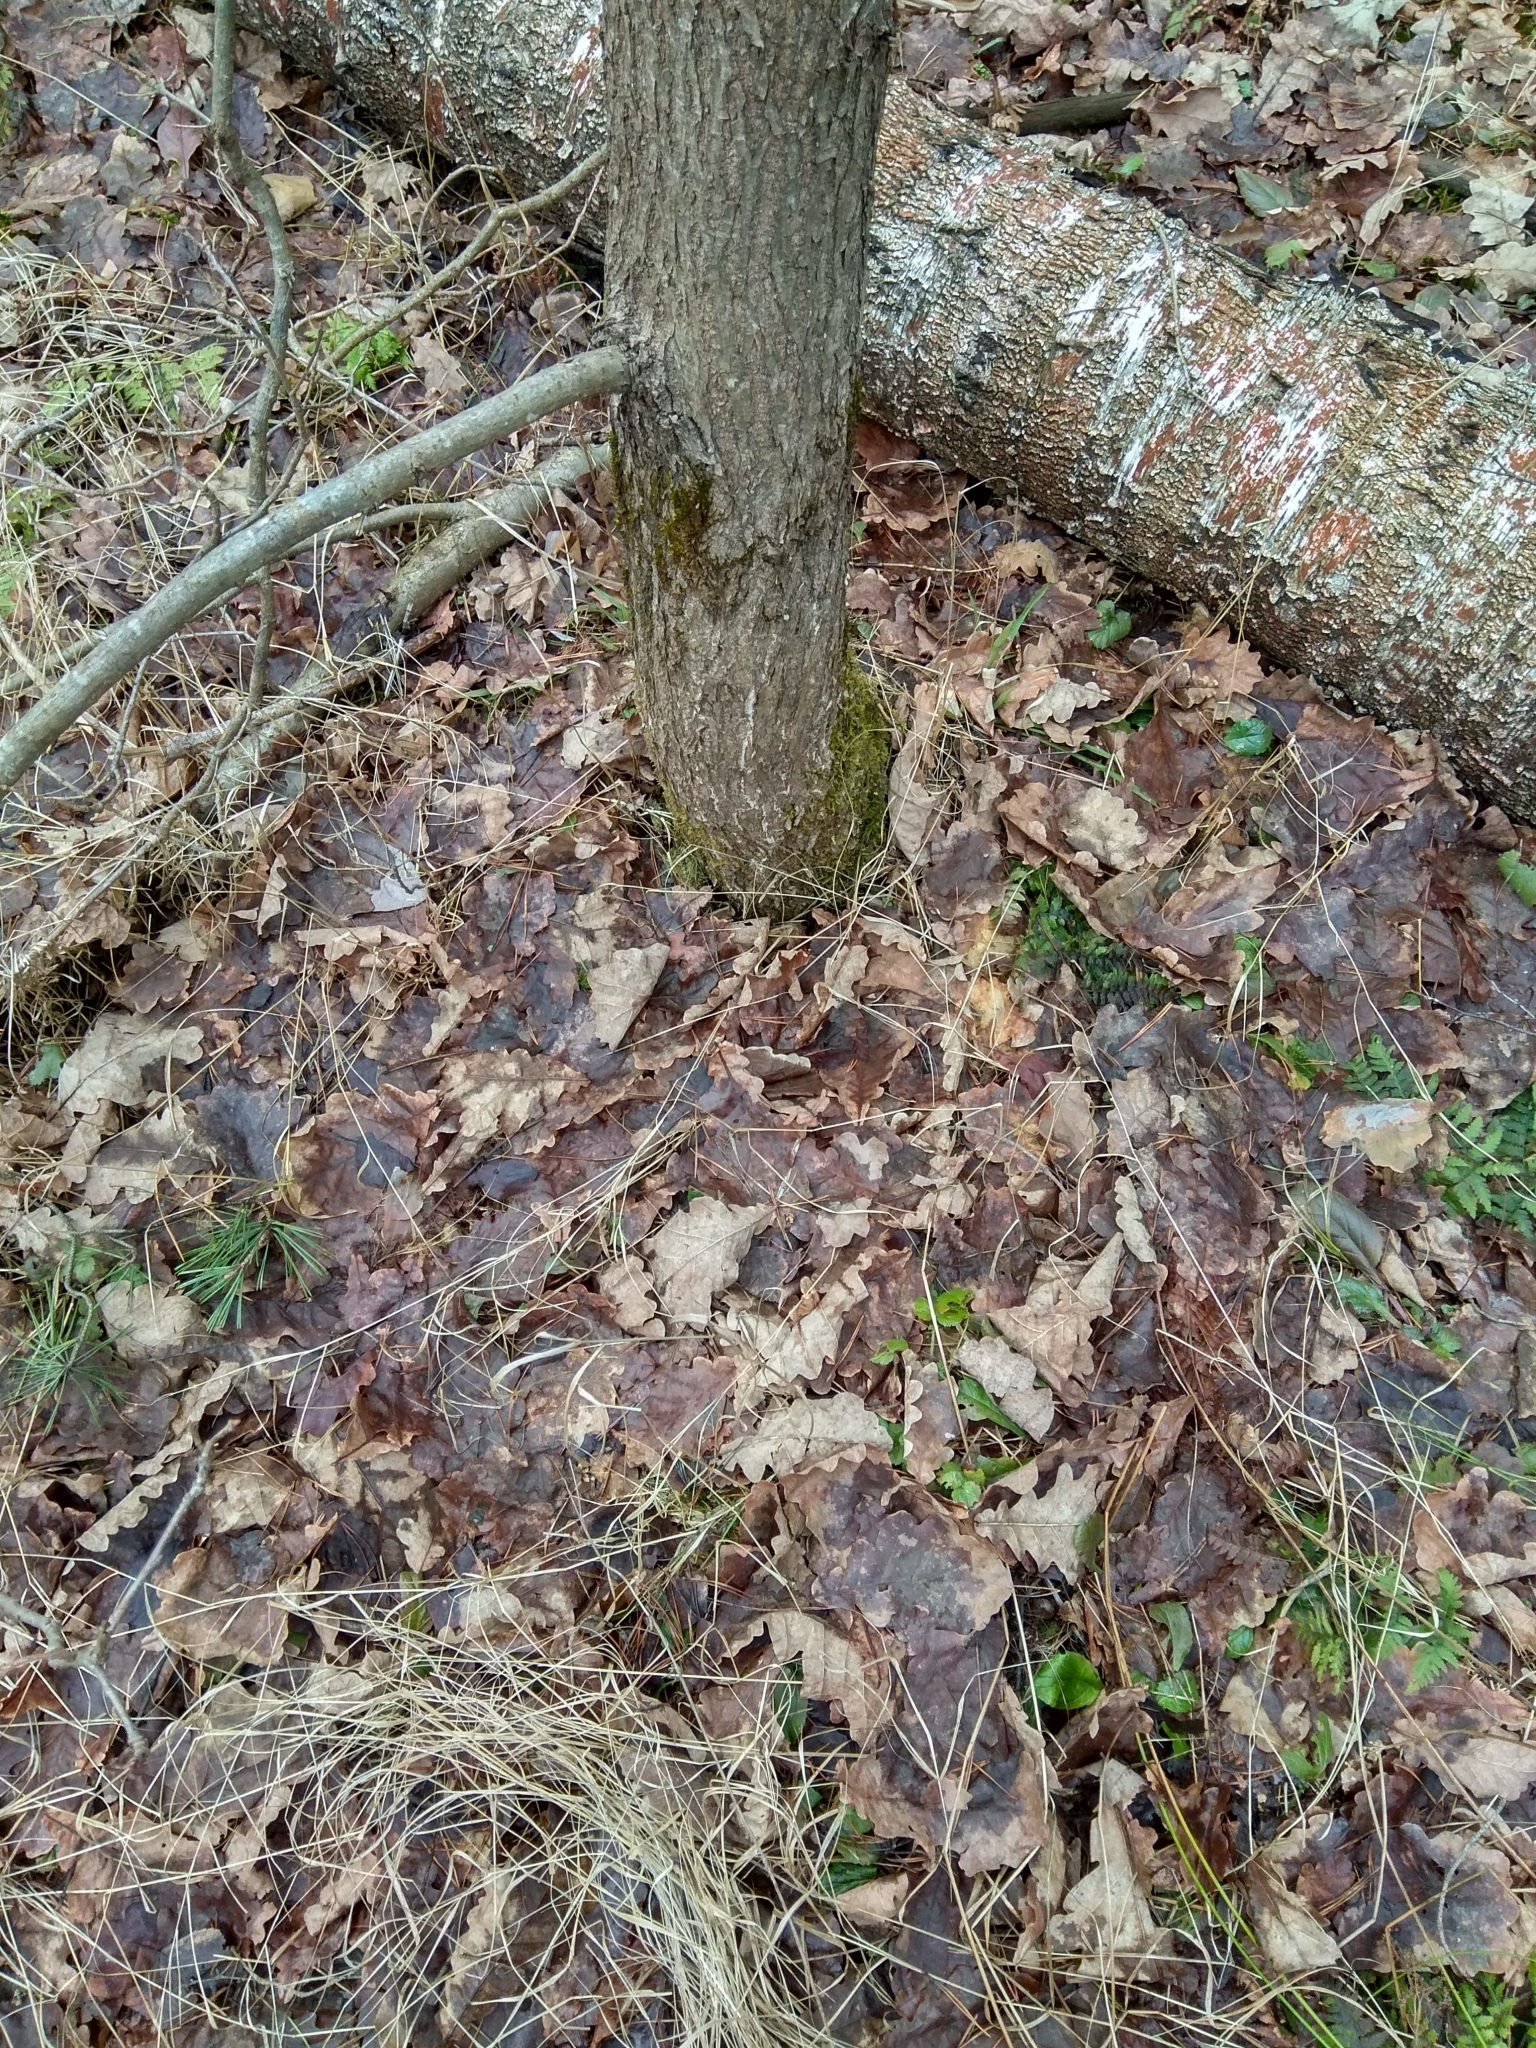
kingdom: Plantae
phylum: Tracheophyta
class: Magnoliopsida
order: Fagales
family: Fagaceae
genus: Quercus
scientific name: Quercus robur
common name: Pedunculate oak
